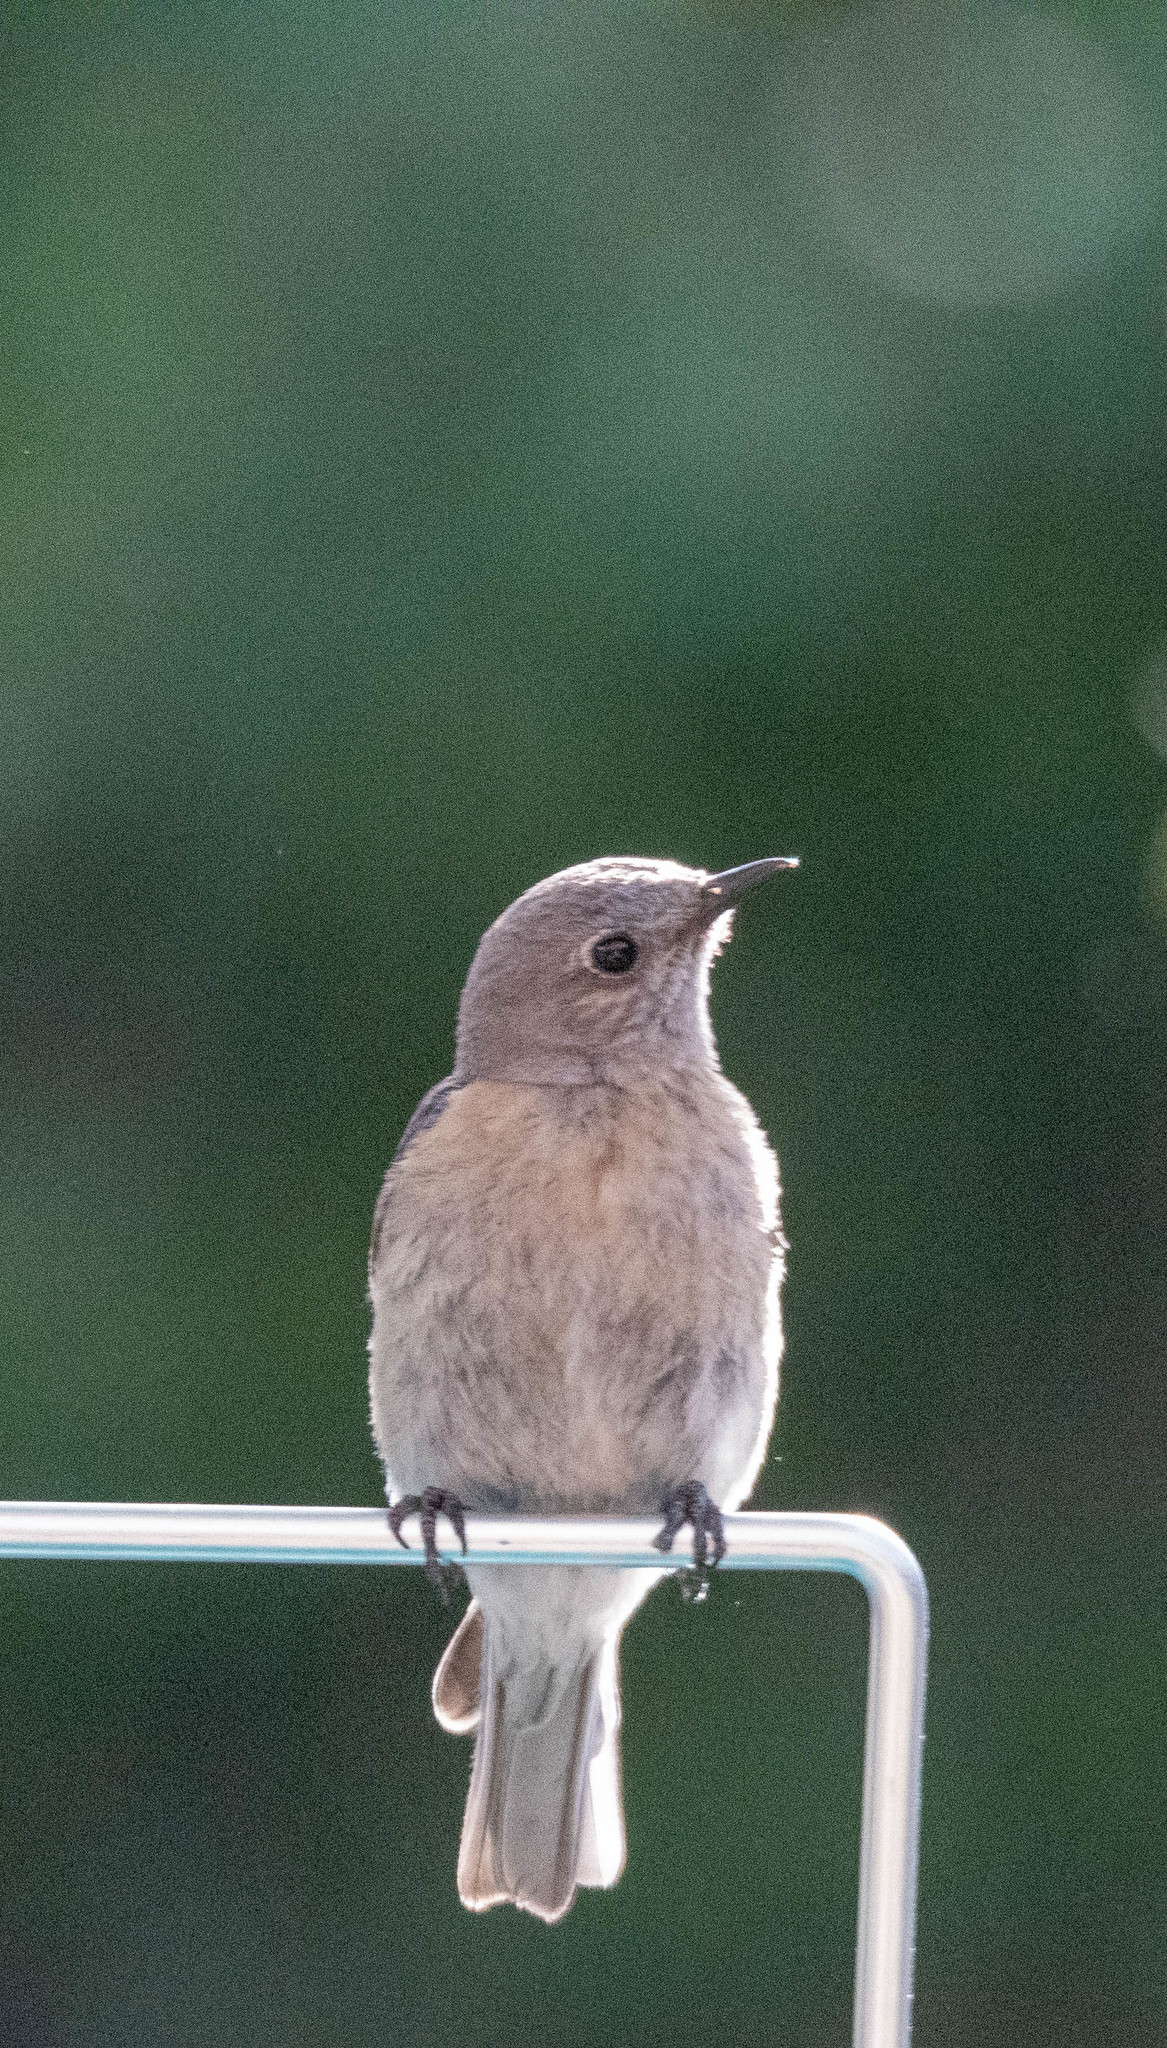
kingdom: Animalia
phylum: Chordata
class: Aves
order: Passeriformes
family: Turdidae
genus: Sialia
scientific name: Sialia mexicana
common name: Western bluebird
